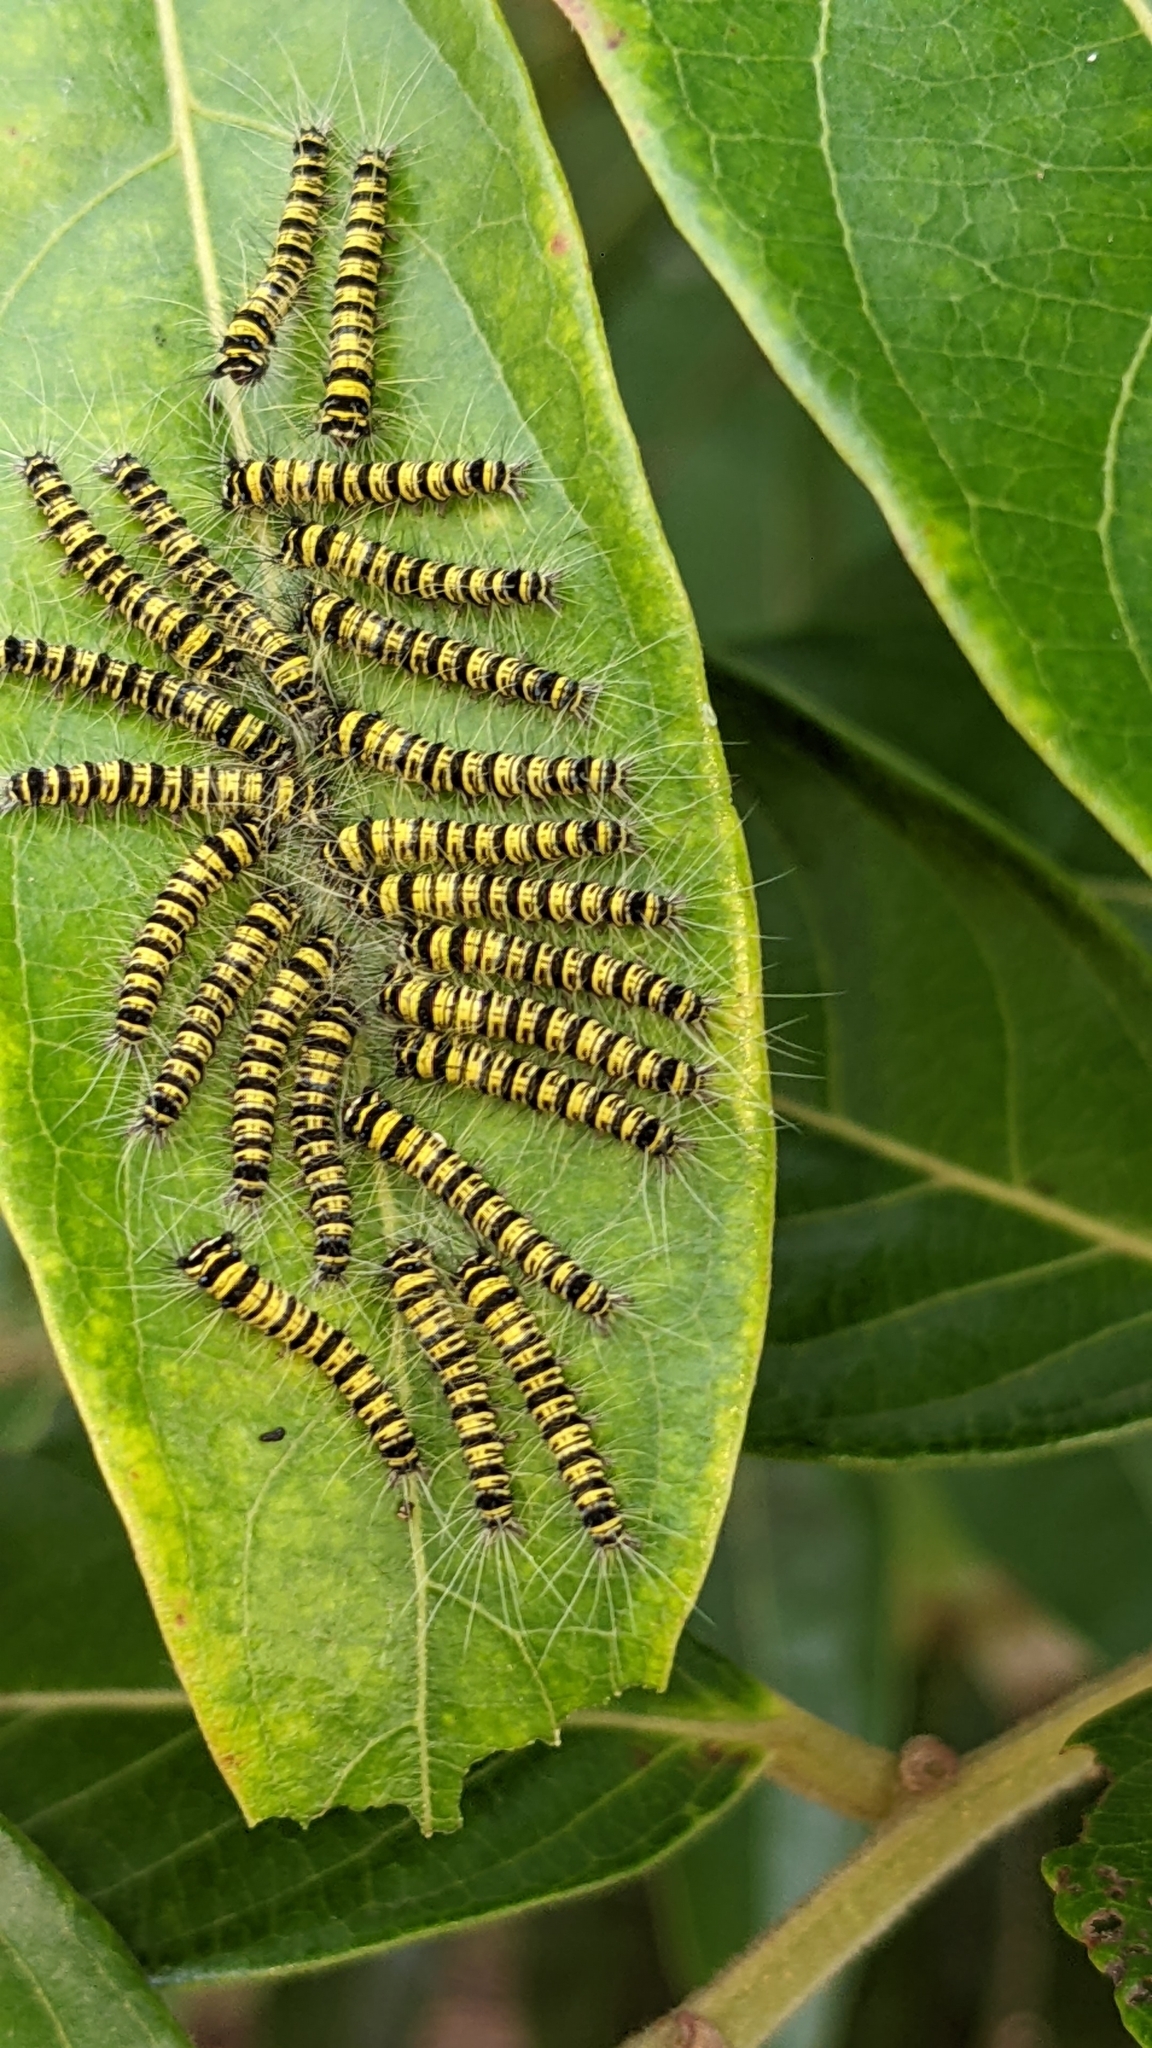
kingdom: Animalia
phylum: Arthropoda
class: Insecta
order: Lepidoptera
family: Lasiocampidae
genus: Trabala
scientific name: Trabala vishnou
